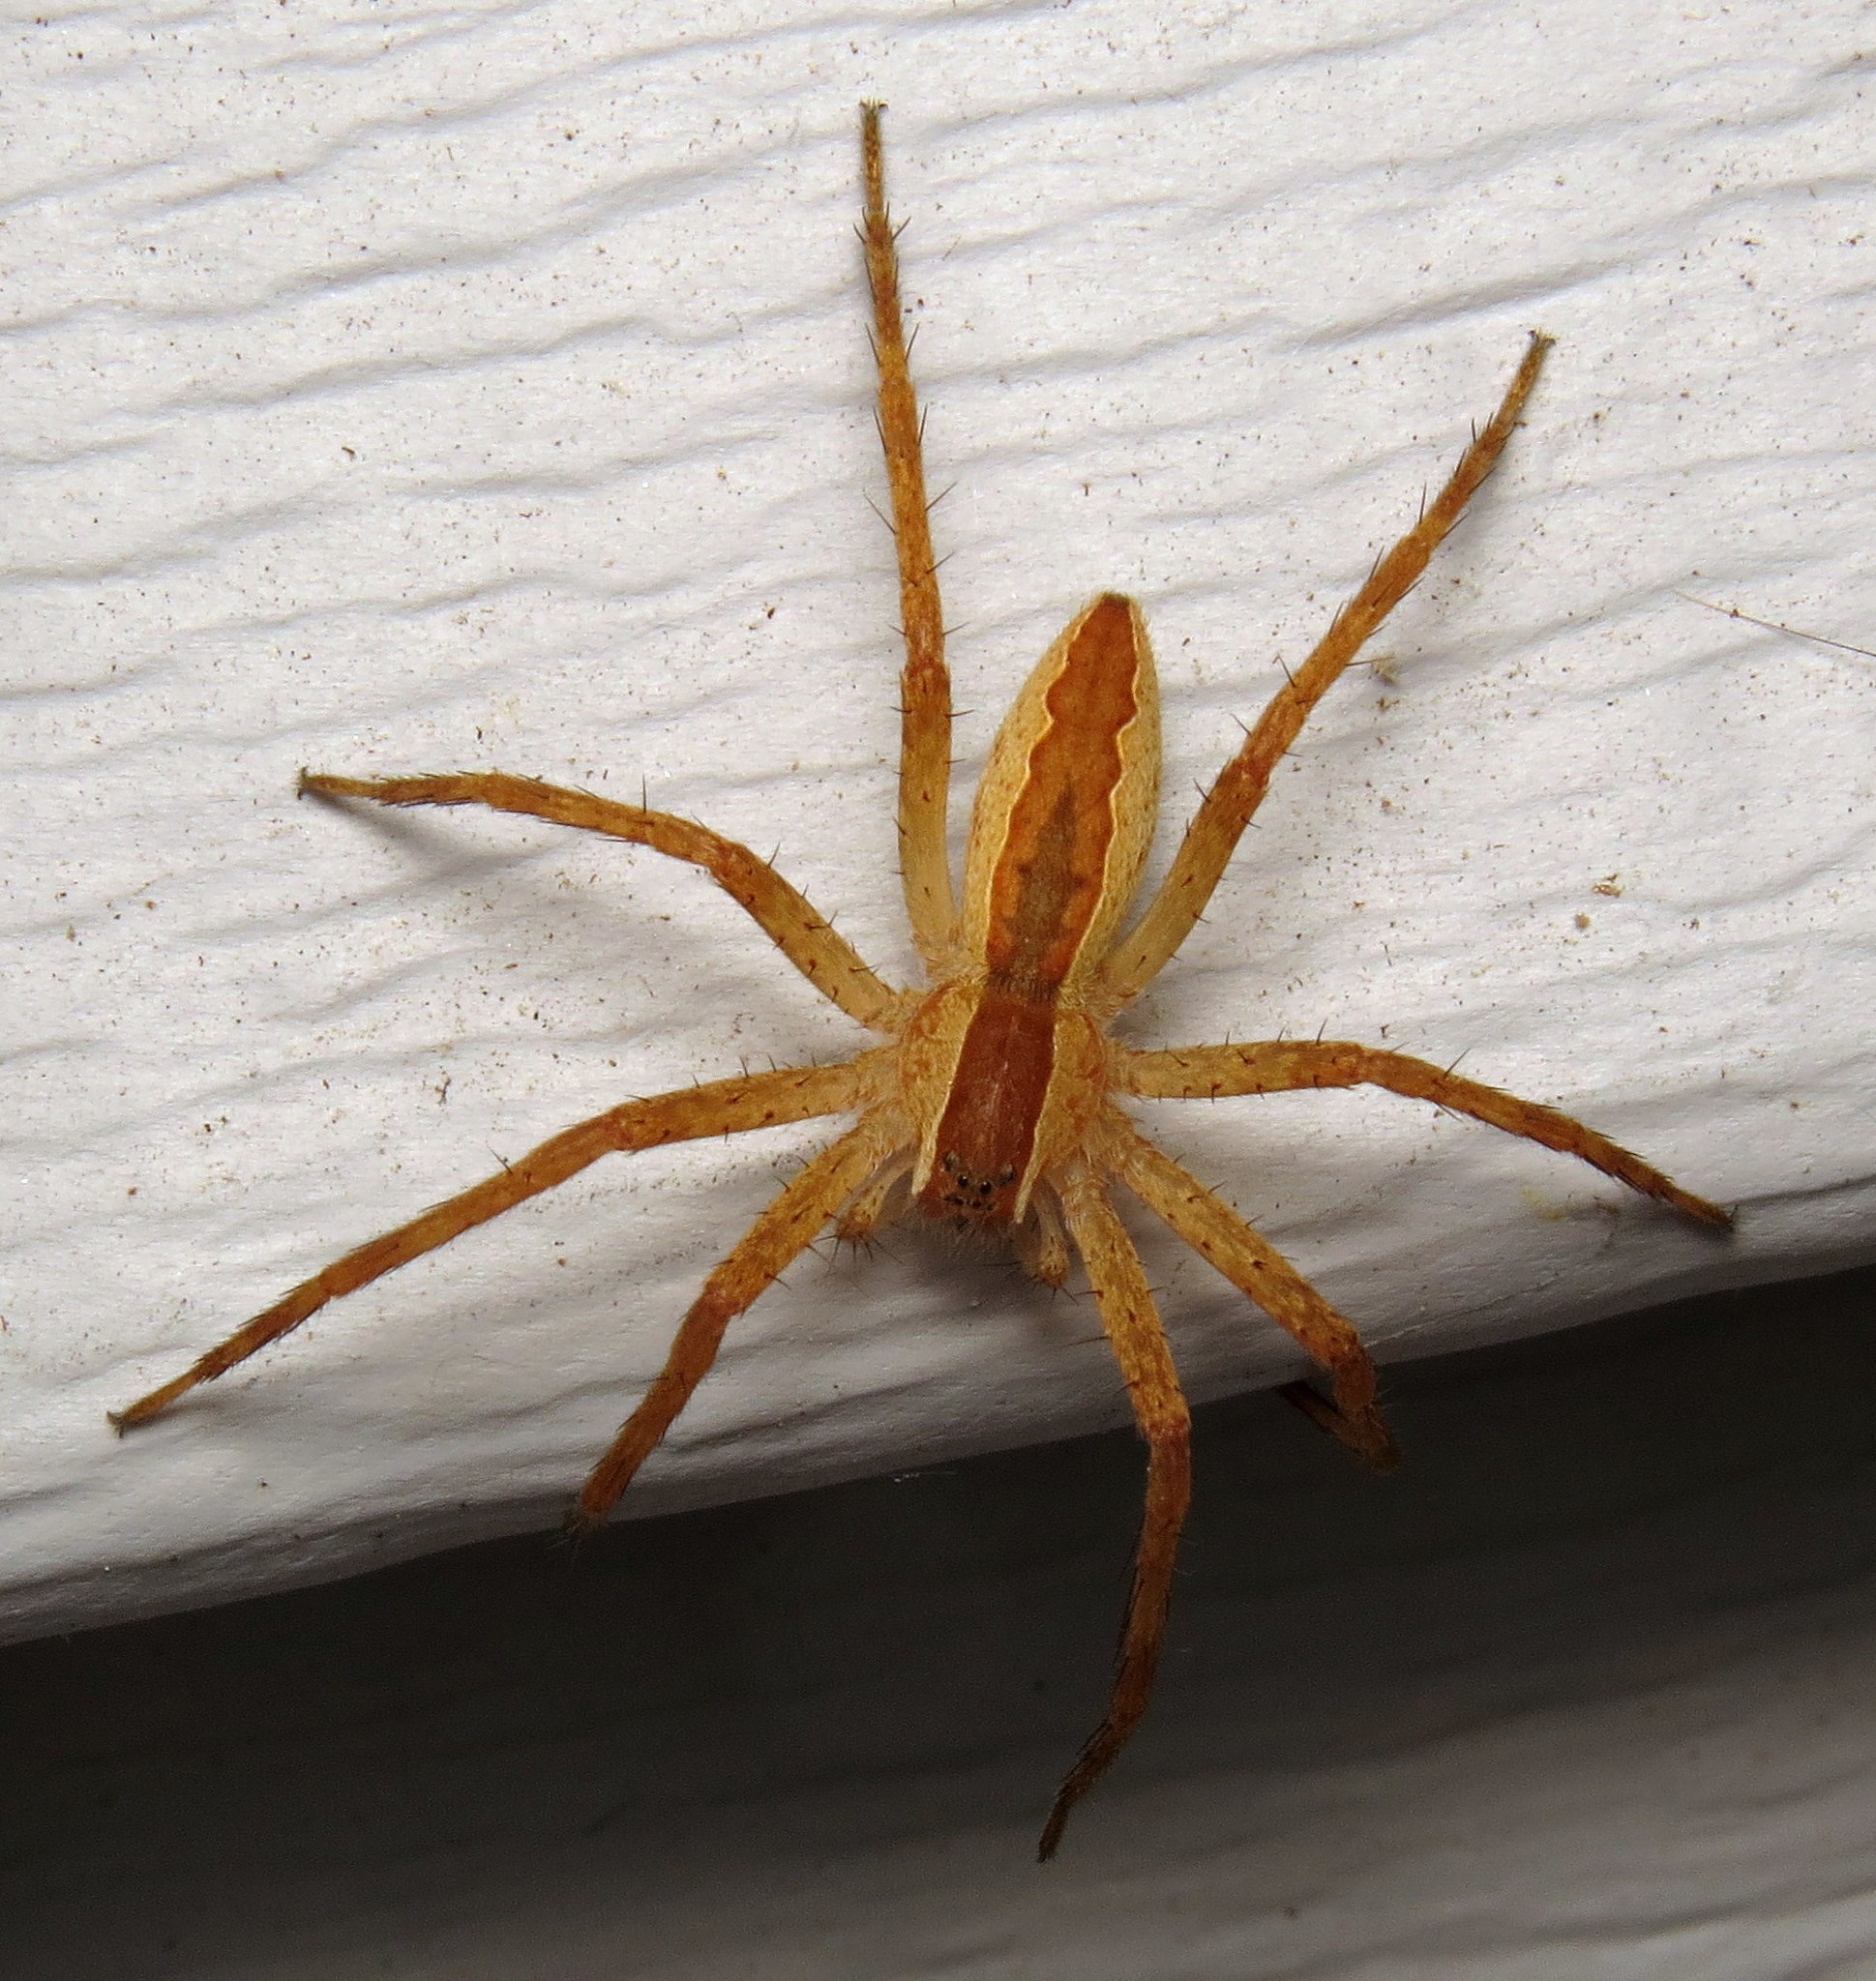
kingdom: Animalia
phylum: Arthropoda
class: Arachnida
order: Araneae
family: Pisauridae
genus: Pisaurina
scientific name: Pisaurina mira
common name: American nursery web spider
